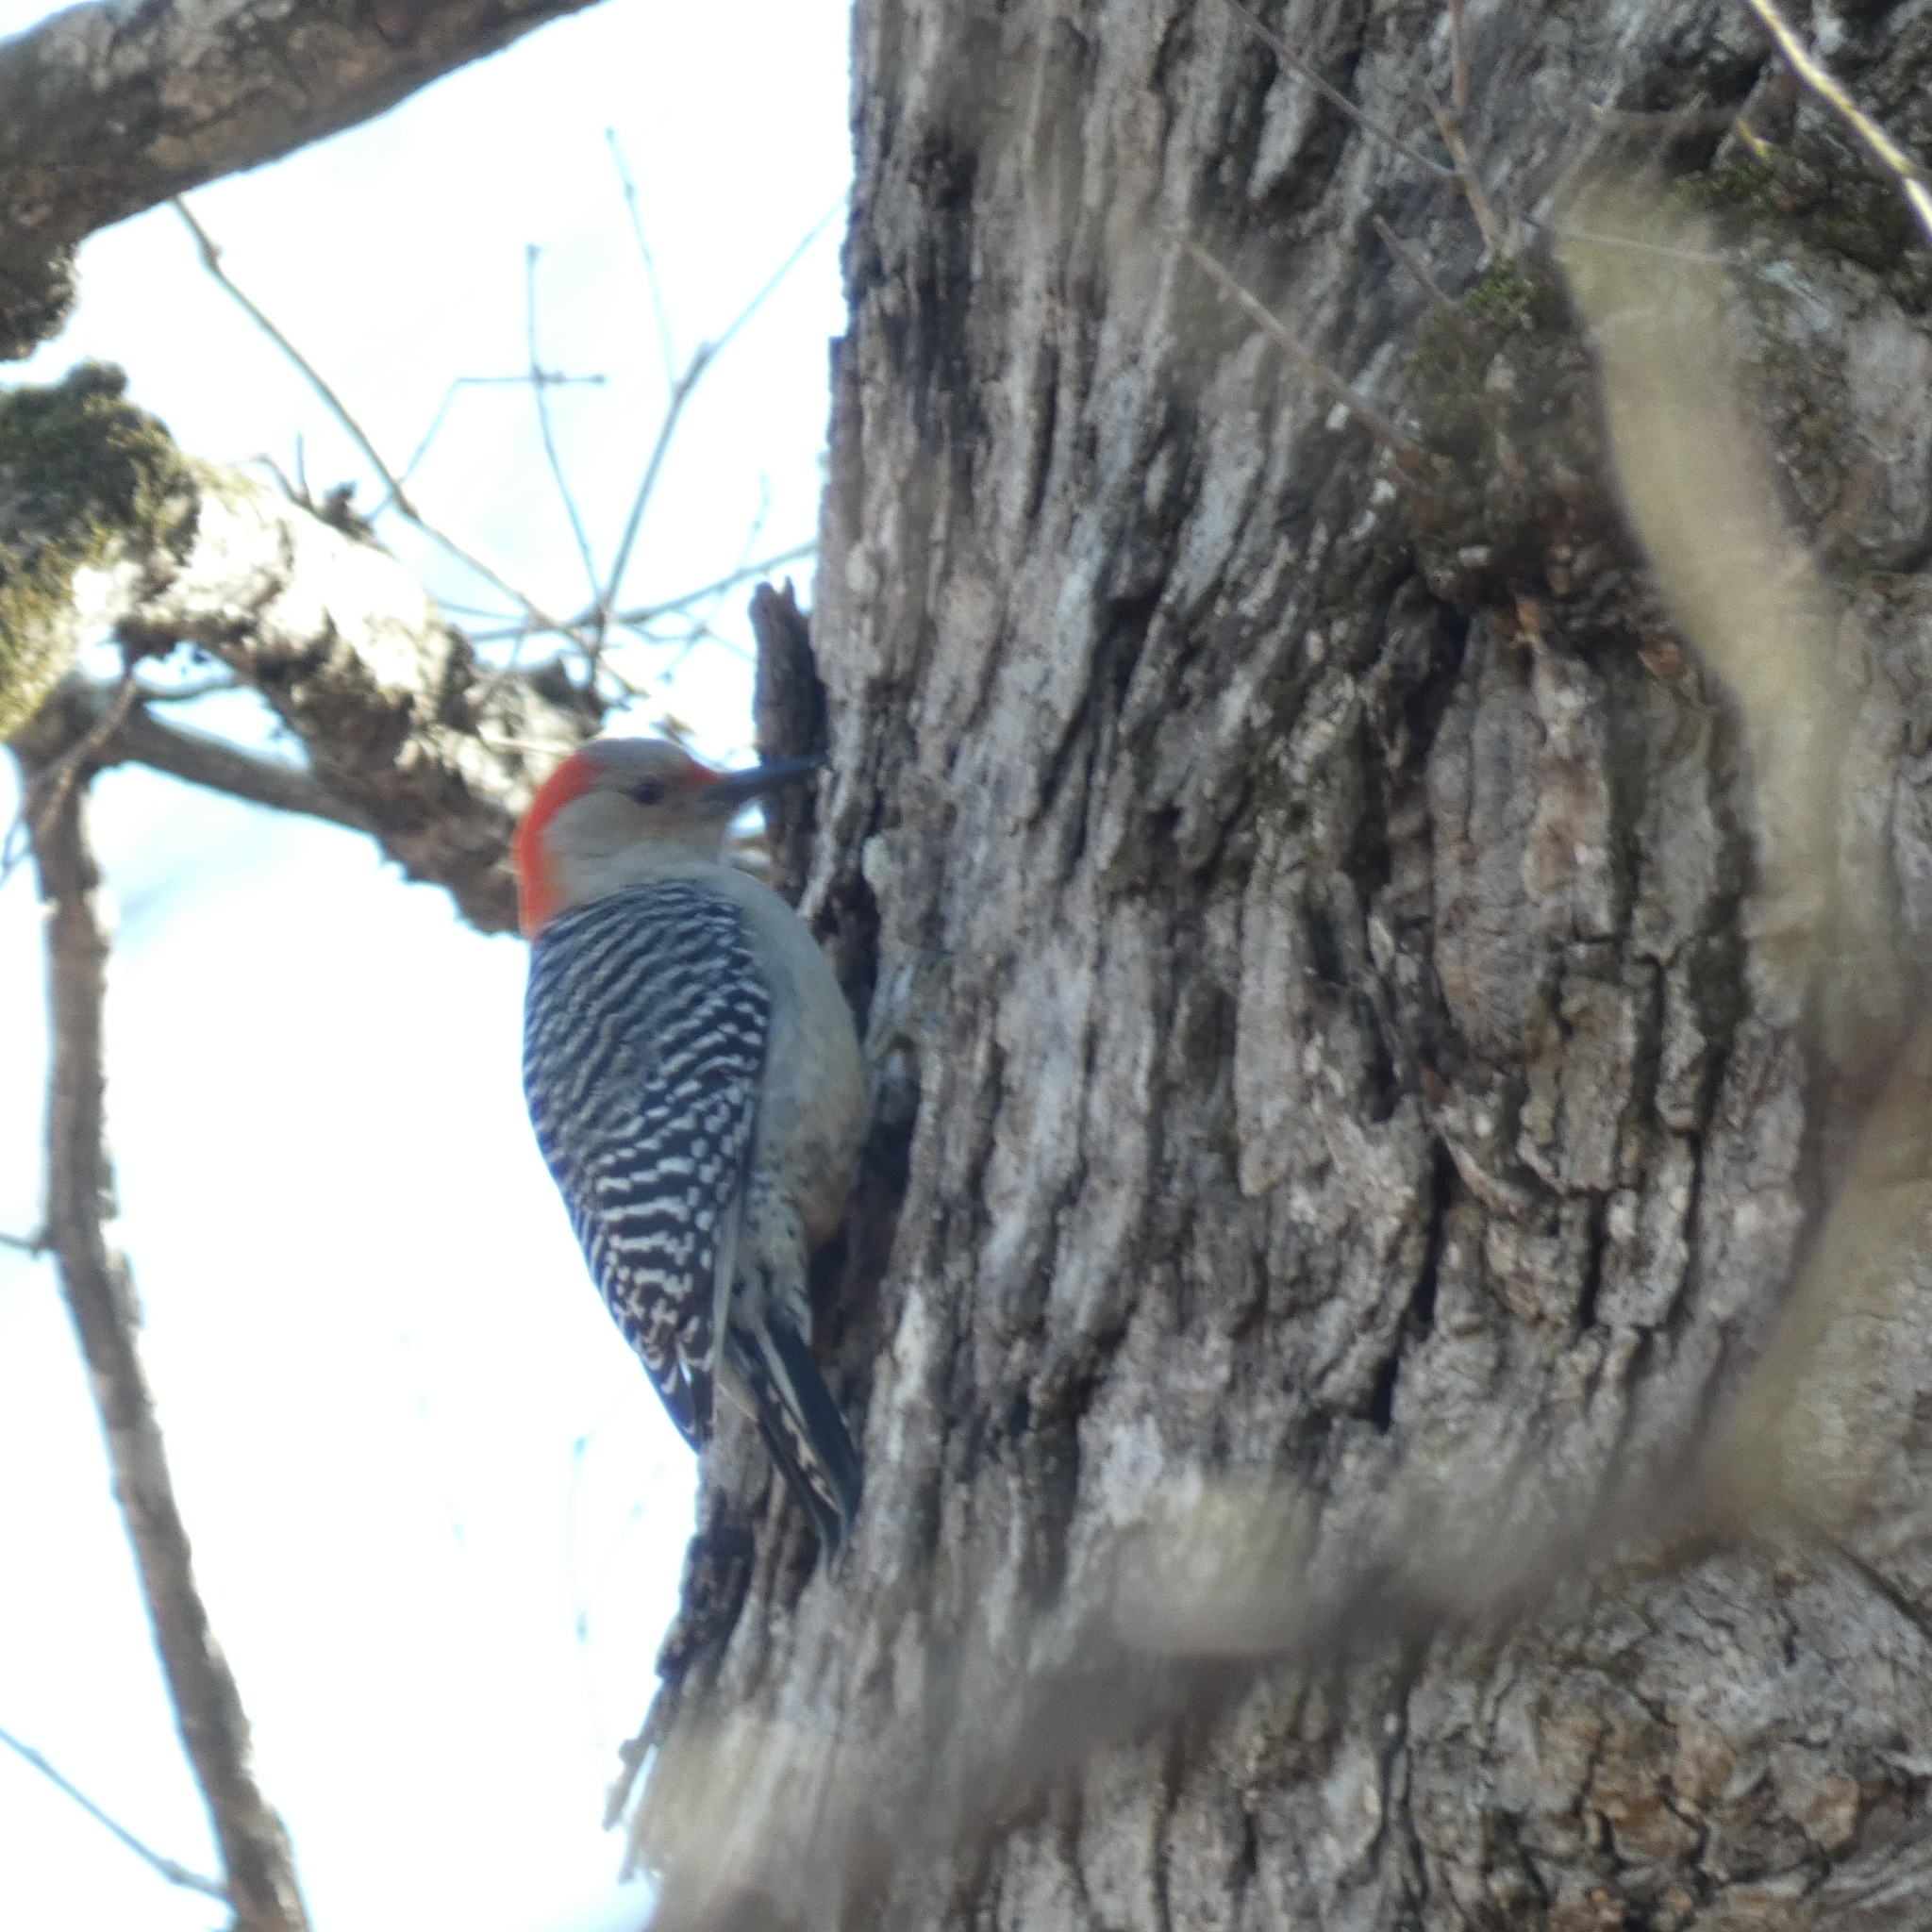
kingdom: Animalia
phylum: Chordata
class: Aves
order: Piciformes
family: Picidae
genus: Melanerpes
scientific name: Melanerpes carolinus
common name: Red-bellied woodpecker
